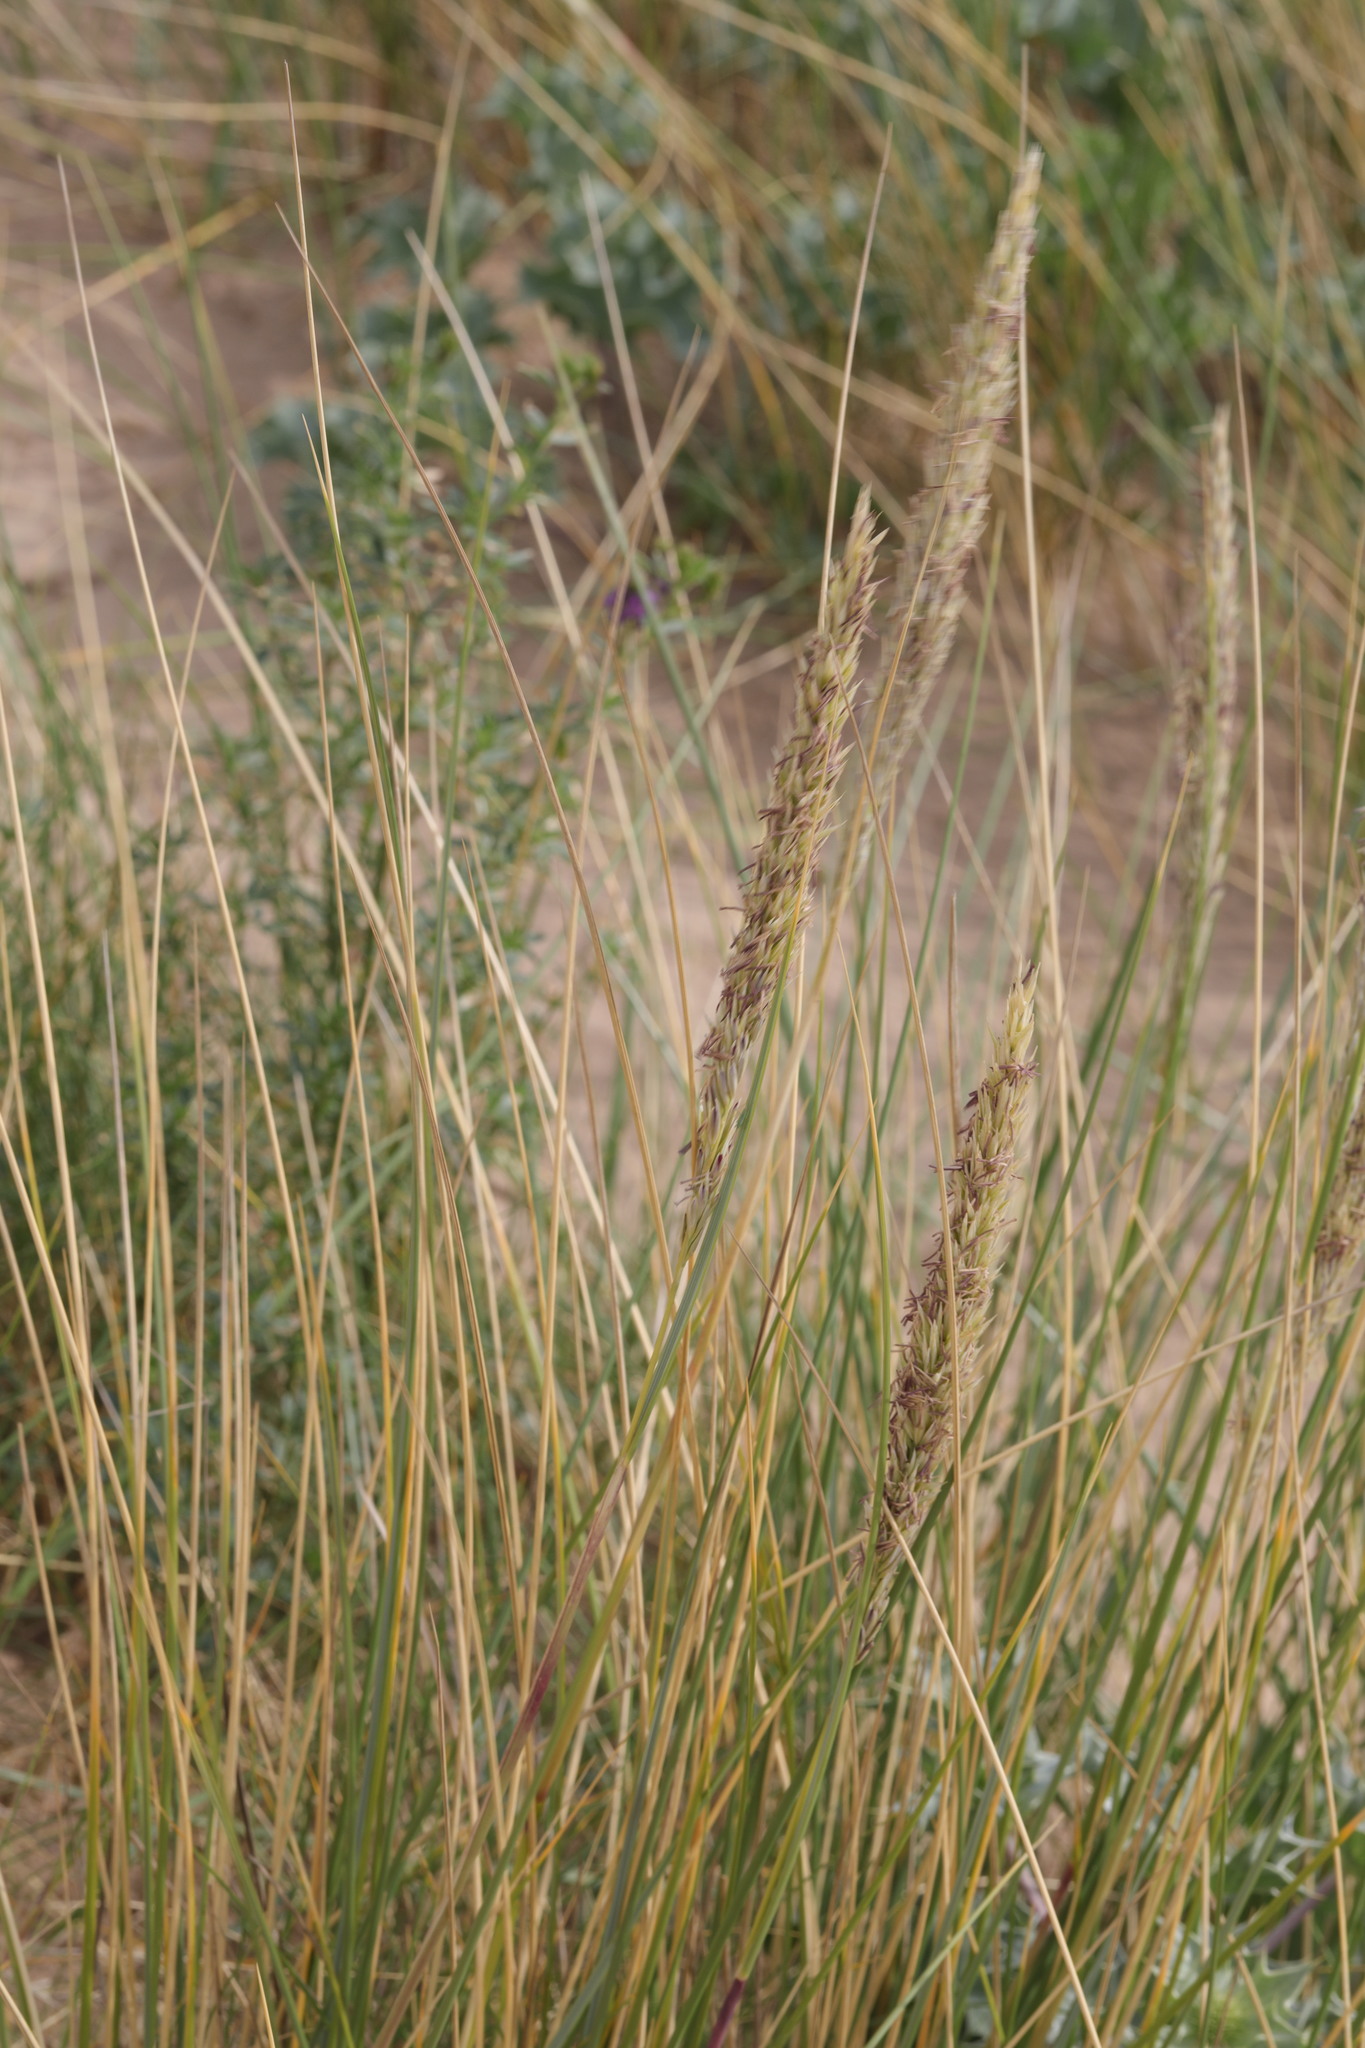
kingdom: Plantae
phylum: Tracheophyta
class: Liliopsida
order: Poales
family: Poaceae
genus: Calamagrostis
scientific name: Calamagrostis arenaria
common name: European beachgrass
